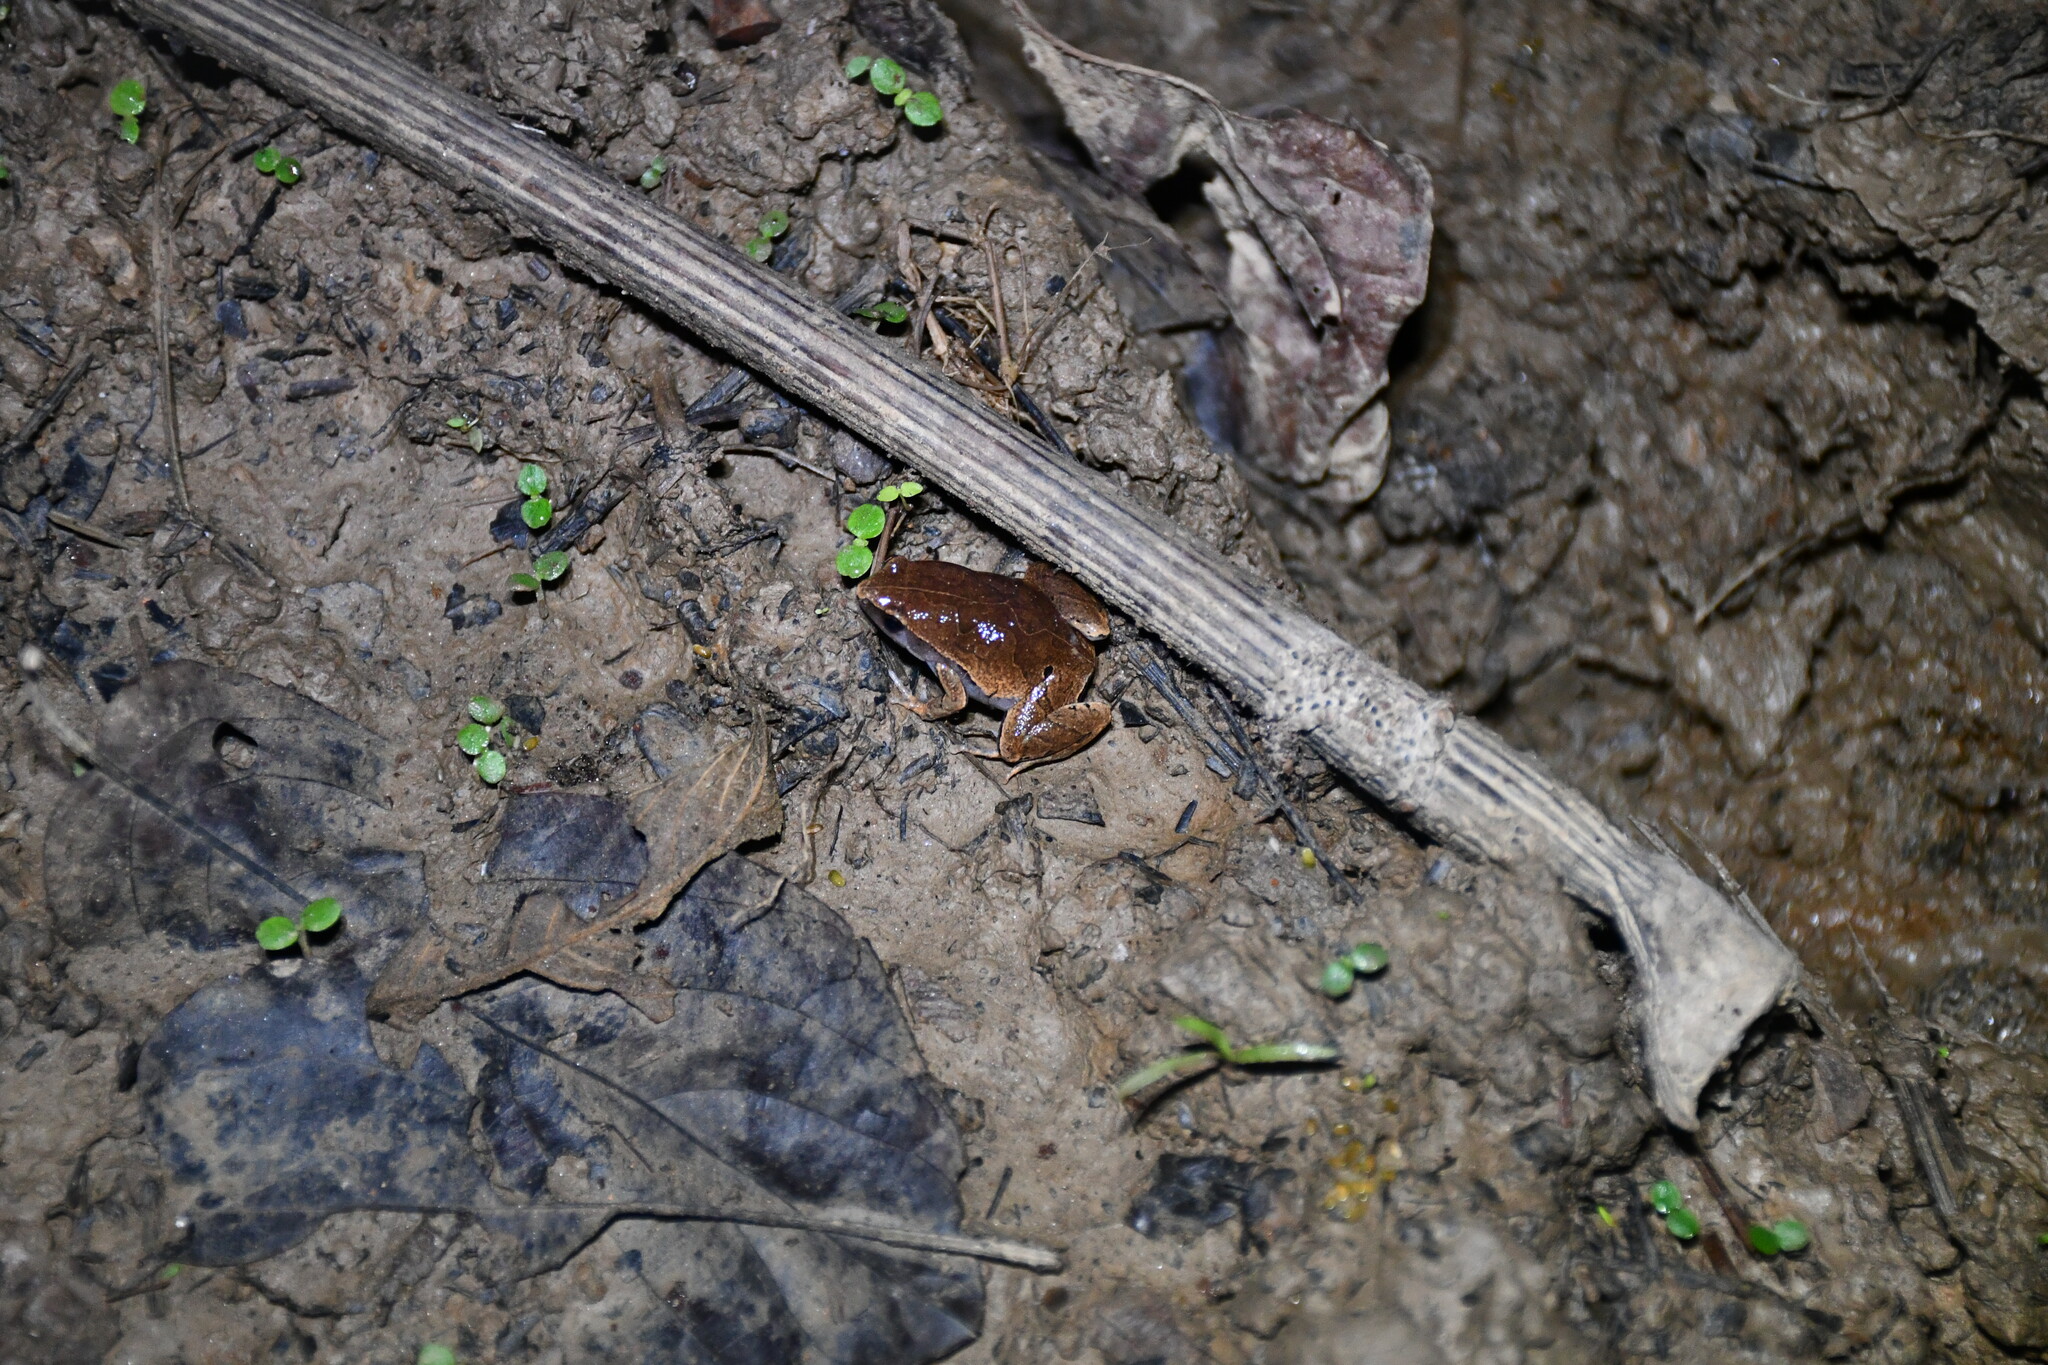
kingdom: Animalia
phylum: Chordata
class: Amphibia
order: Anura
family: Microhylidae
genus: Hamptophryne
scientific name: Hamptophryne boliviana
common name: Bolivian bleating frog
